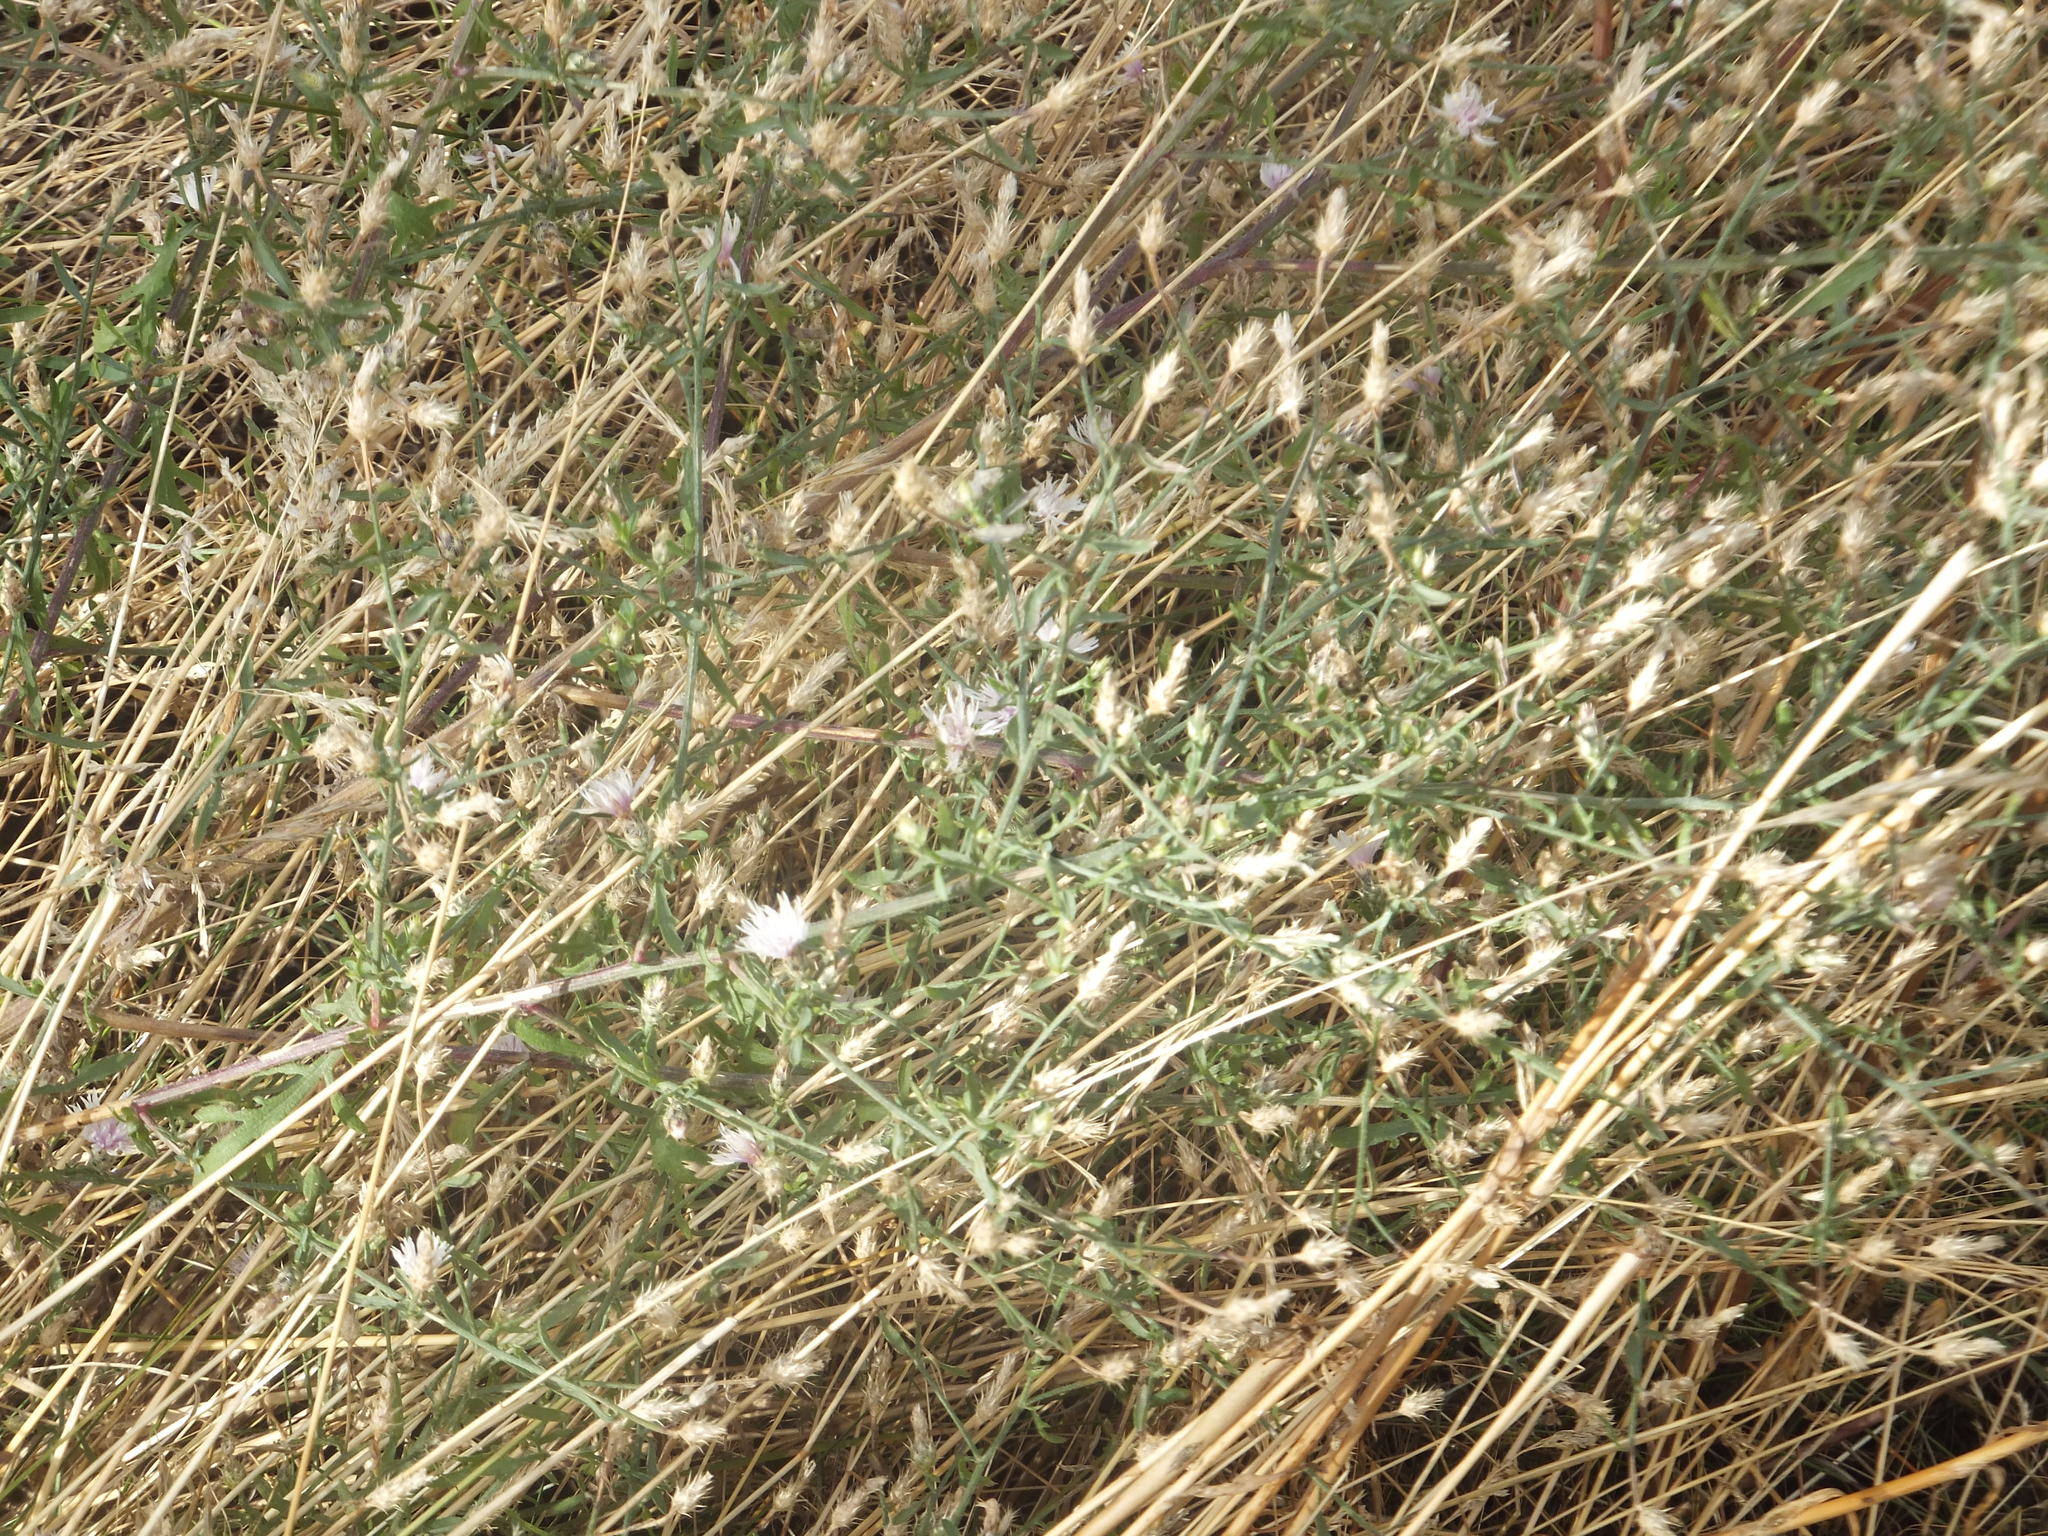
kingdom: Plantae
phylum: Tracheophyta
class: Magnoliopsida
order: Asterales
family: Asteraceae
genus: Centaurea
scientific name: Centaurea diffusa
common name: Diffuse knapweed
